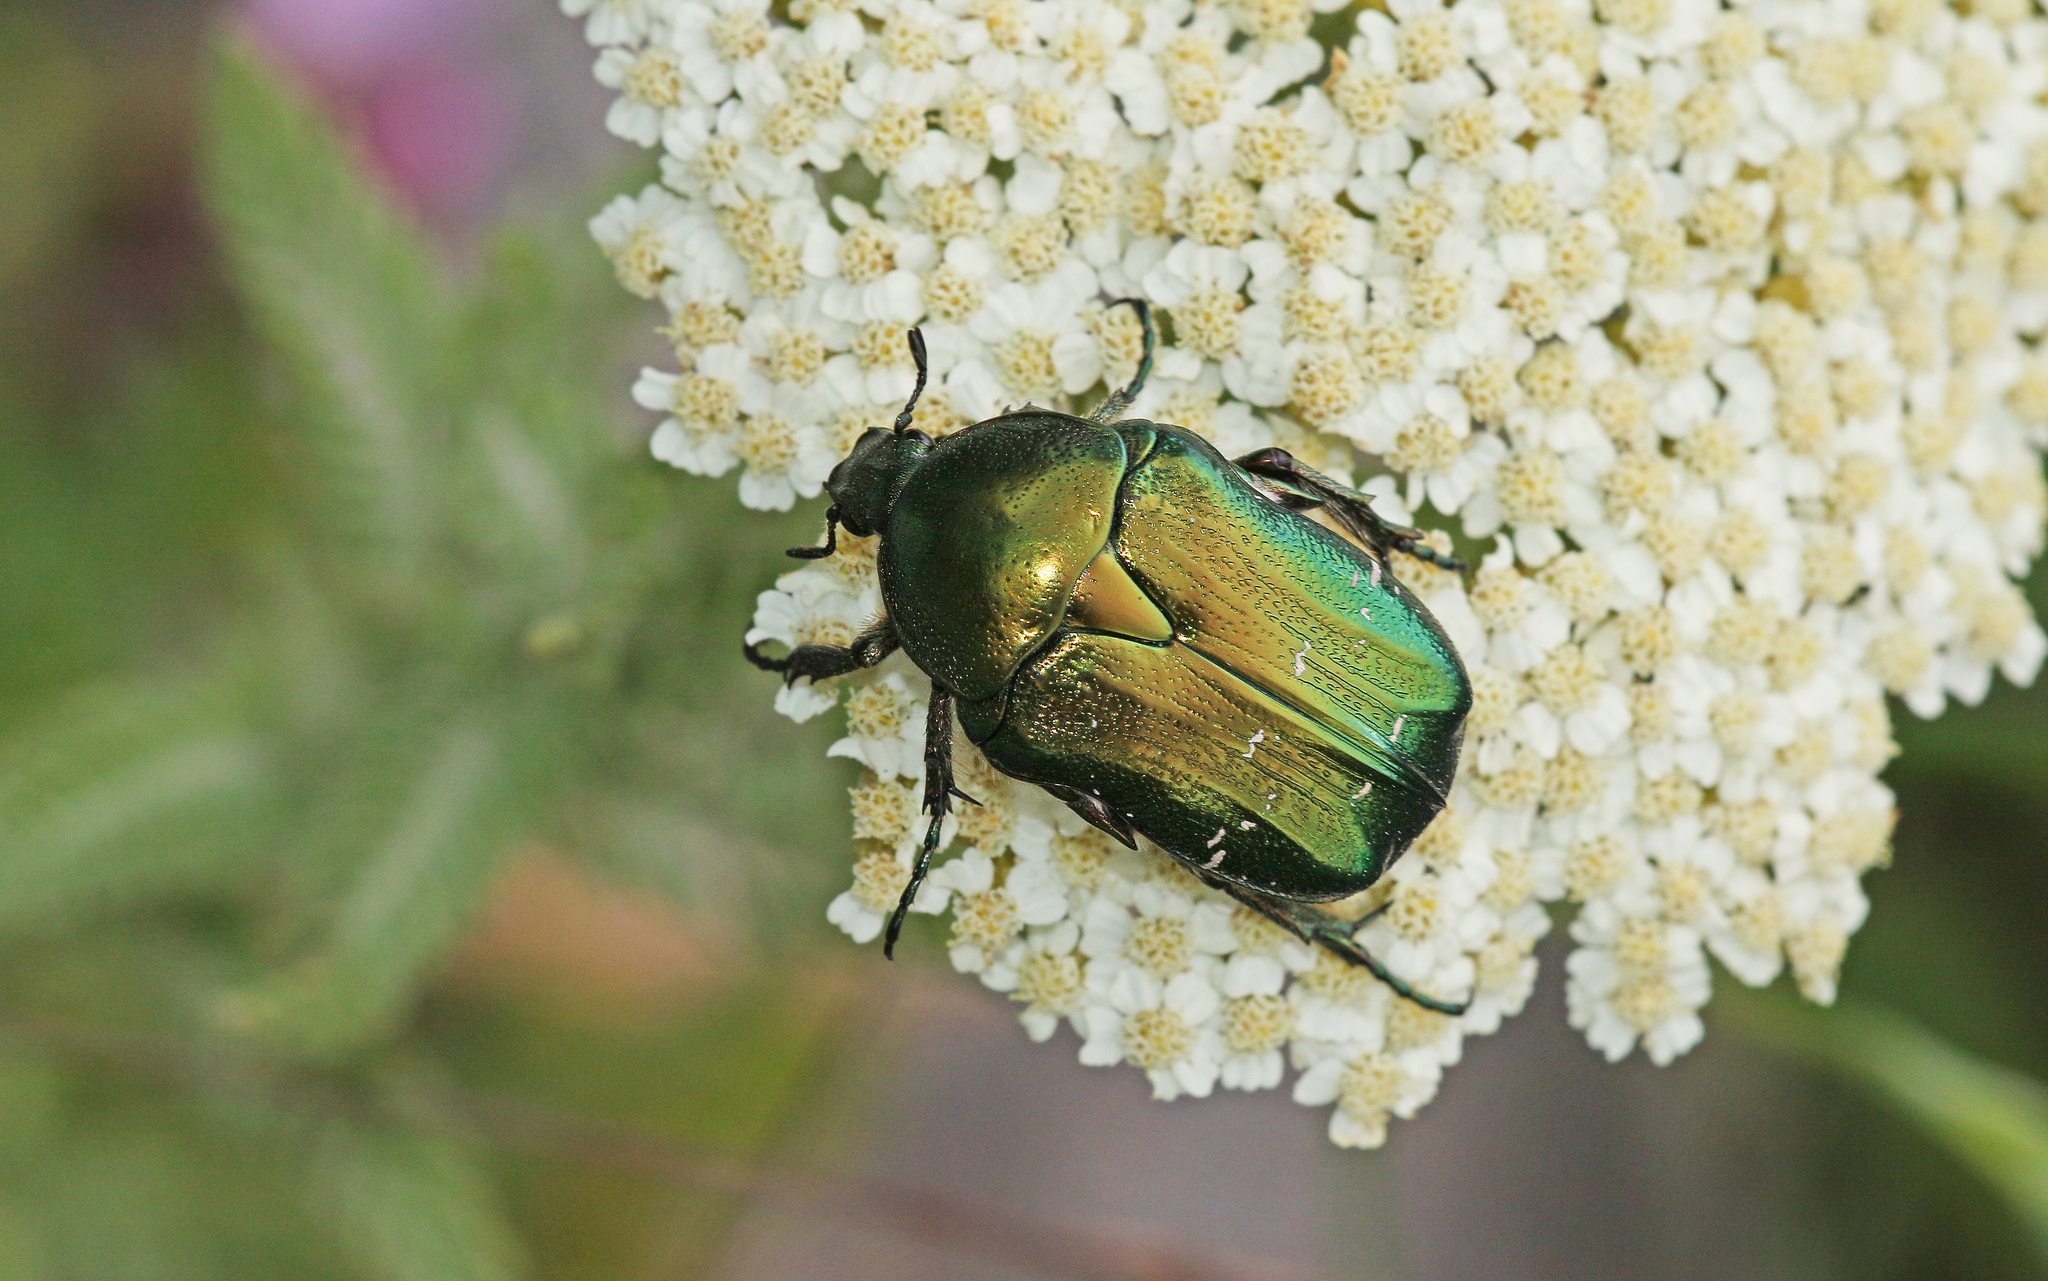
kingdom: Animalia
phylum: Arthropoda
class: Insecta
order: Coleoptera
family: Scarabaeidae
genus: Cetonia
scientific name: Cetonia aurata
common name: Rose chafer
